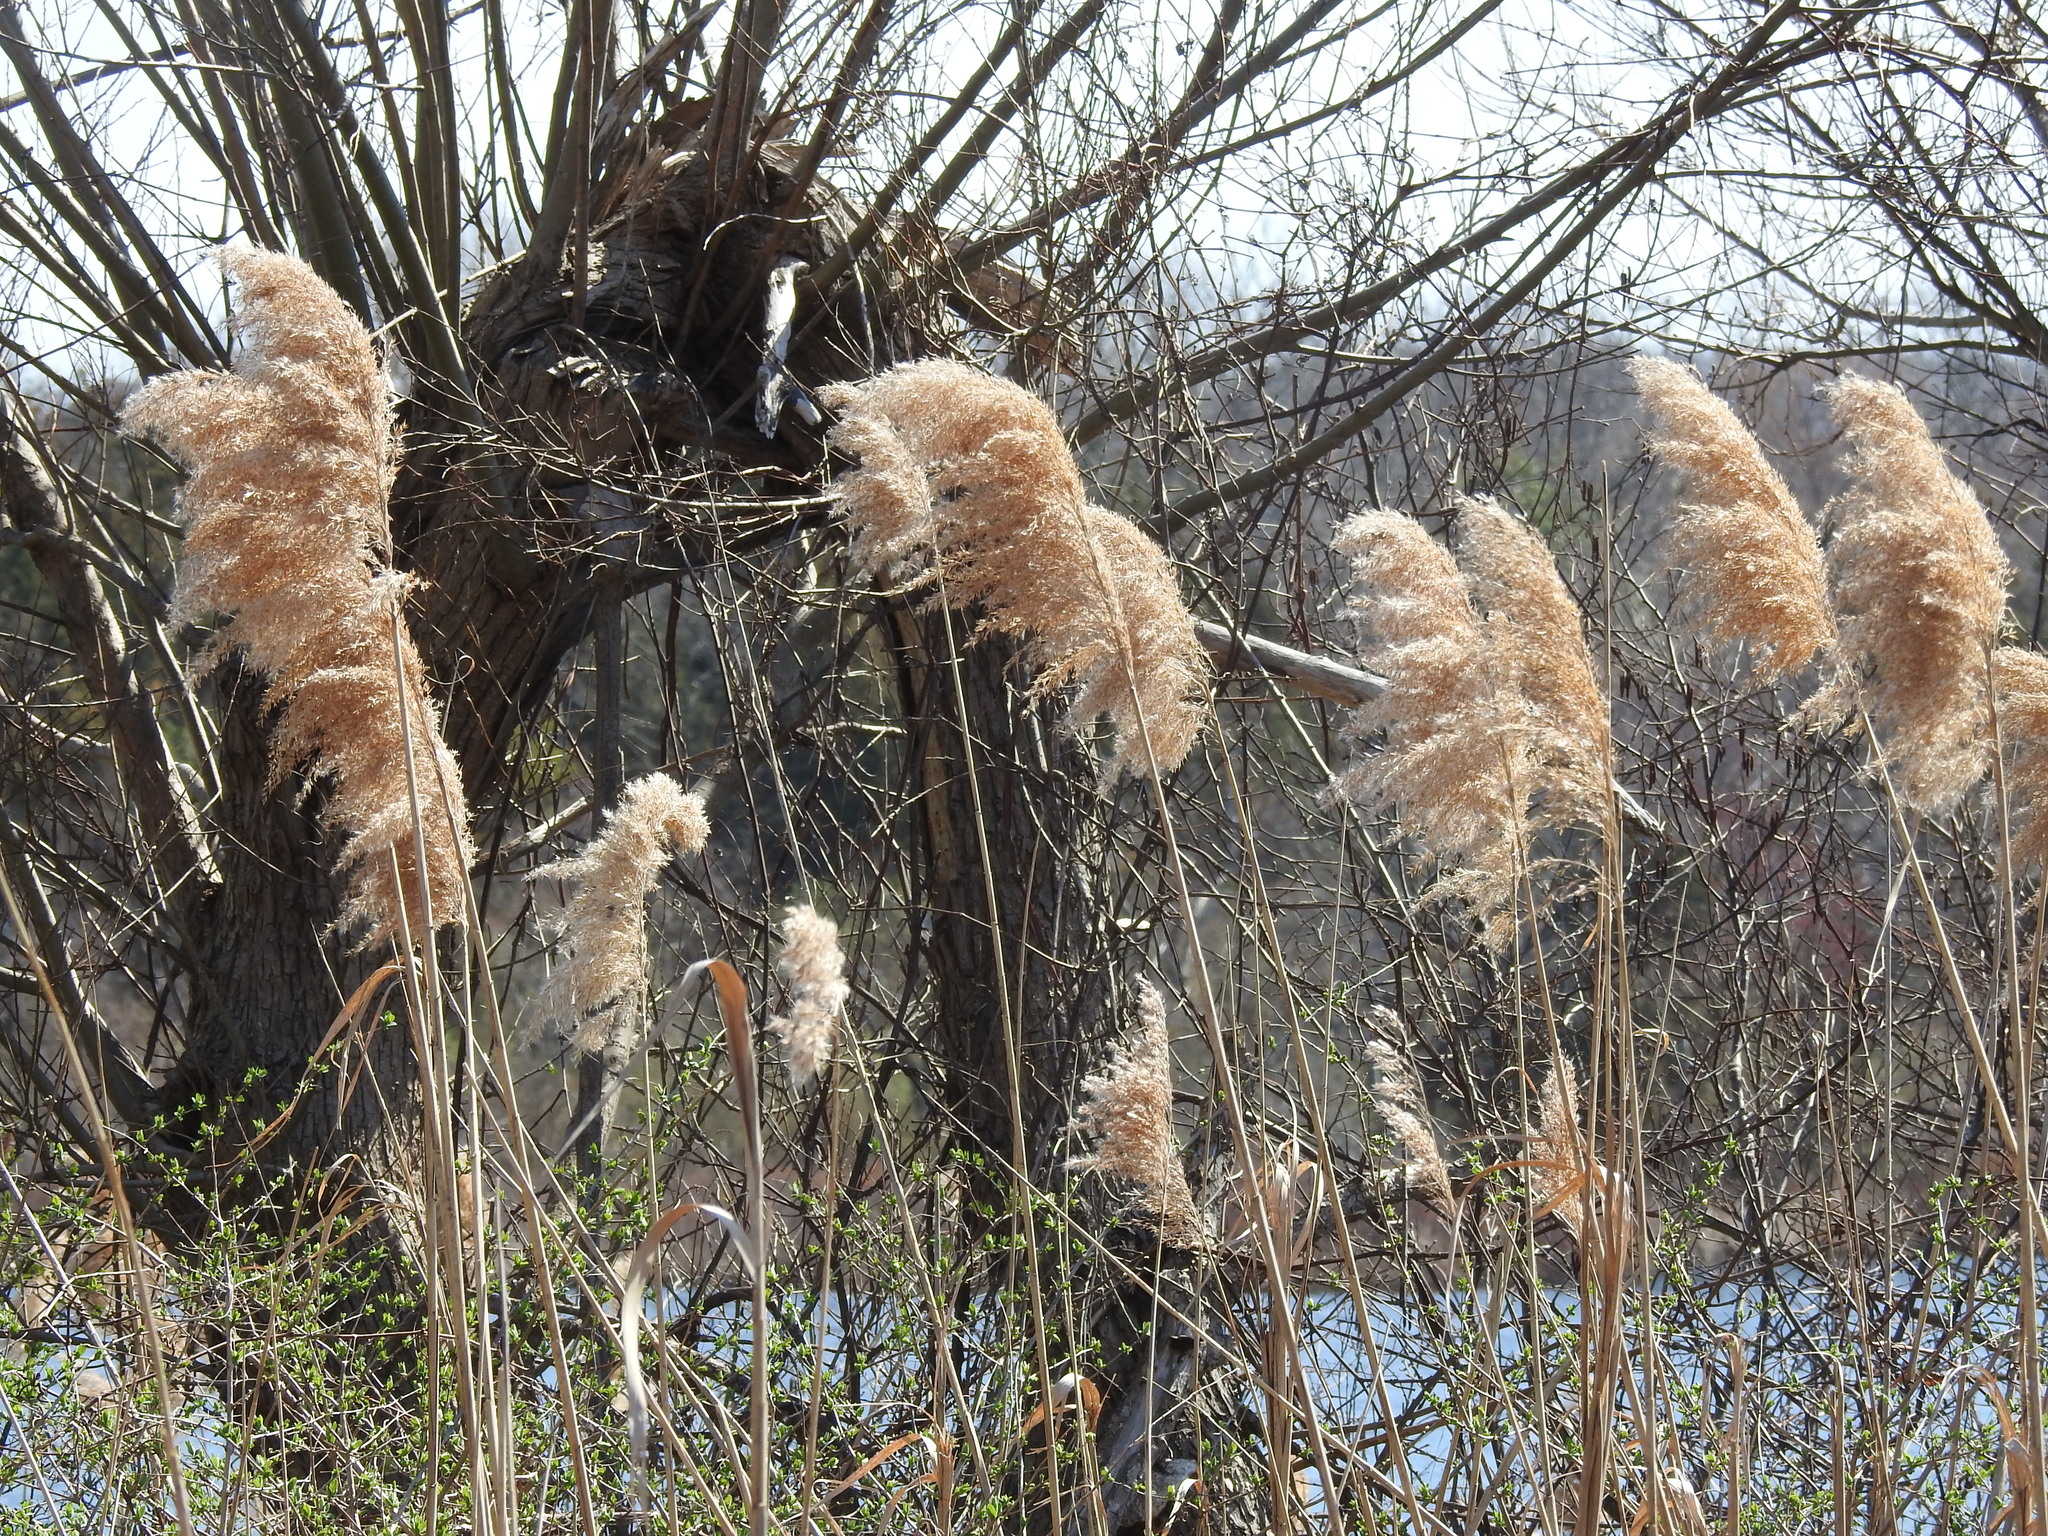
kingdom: Plantae
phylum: Tracheophyta
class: Liliopsida
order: Poales
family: Poaceae
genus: Phragmites
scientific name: Phragmites australis
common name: Common reed
